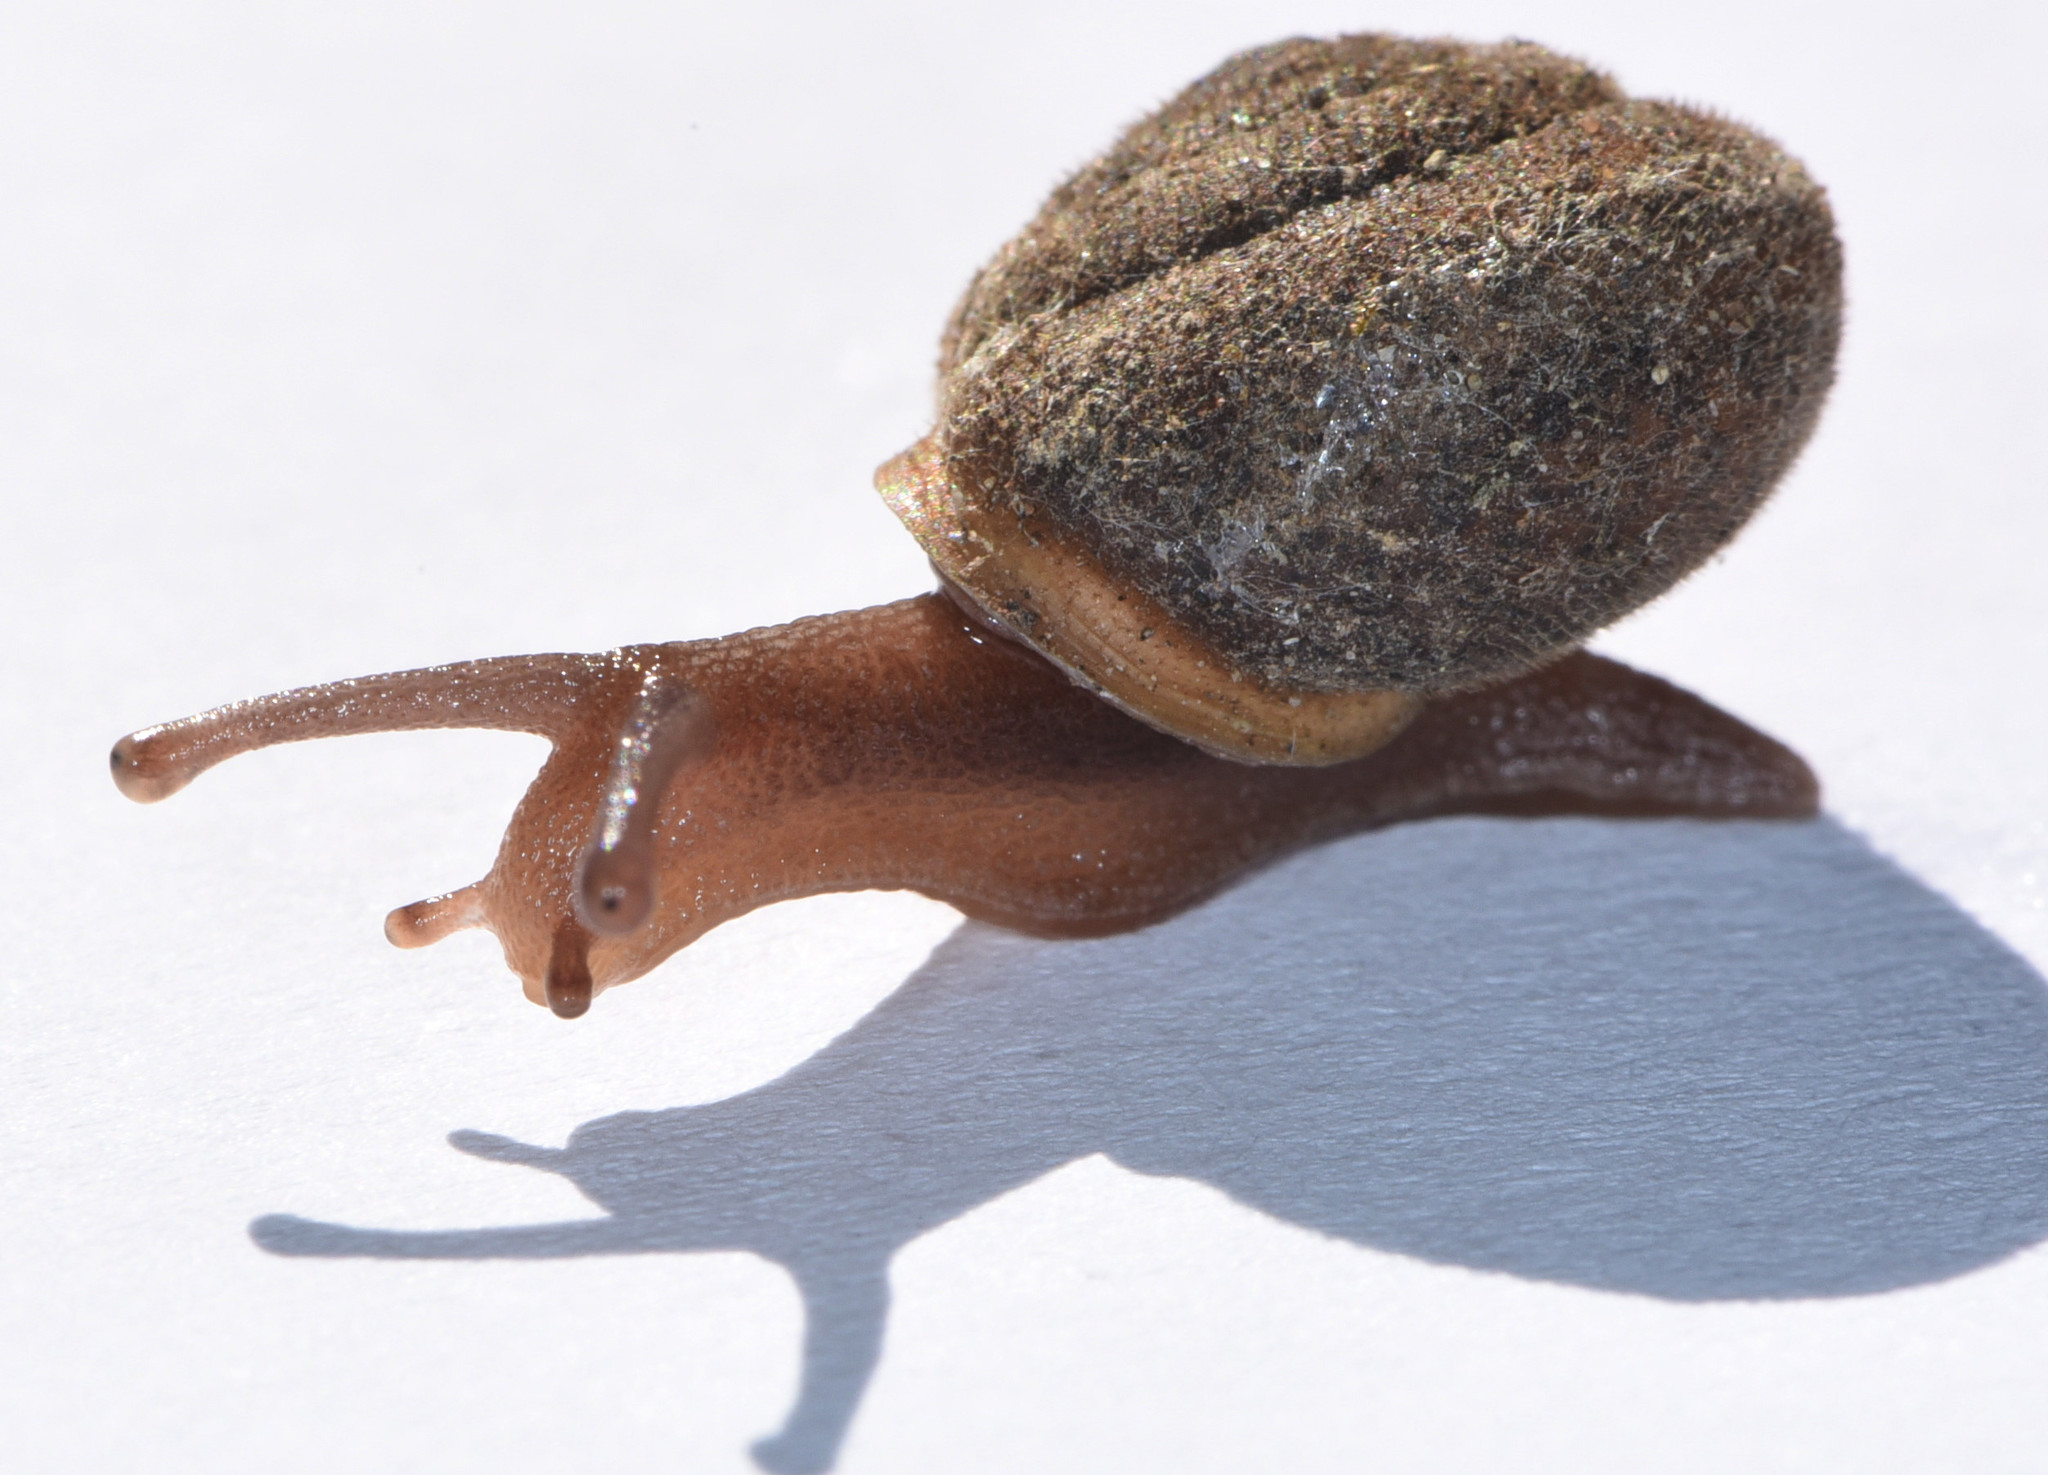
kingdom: Animalia
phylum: Mollusca
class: Gastropoda
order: Stylommatophora
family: Polygyridae
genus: Vespericola
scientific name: Vespericola
